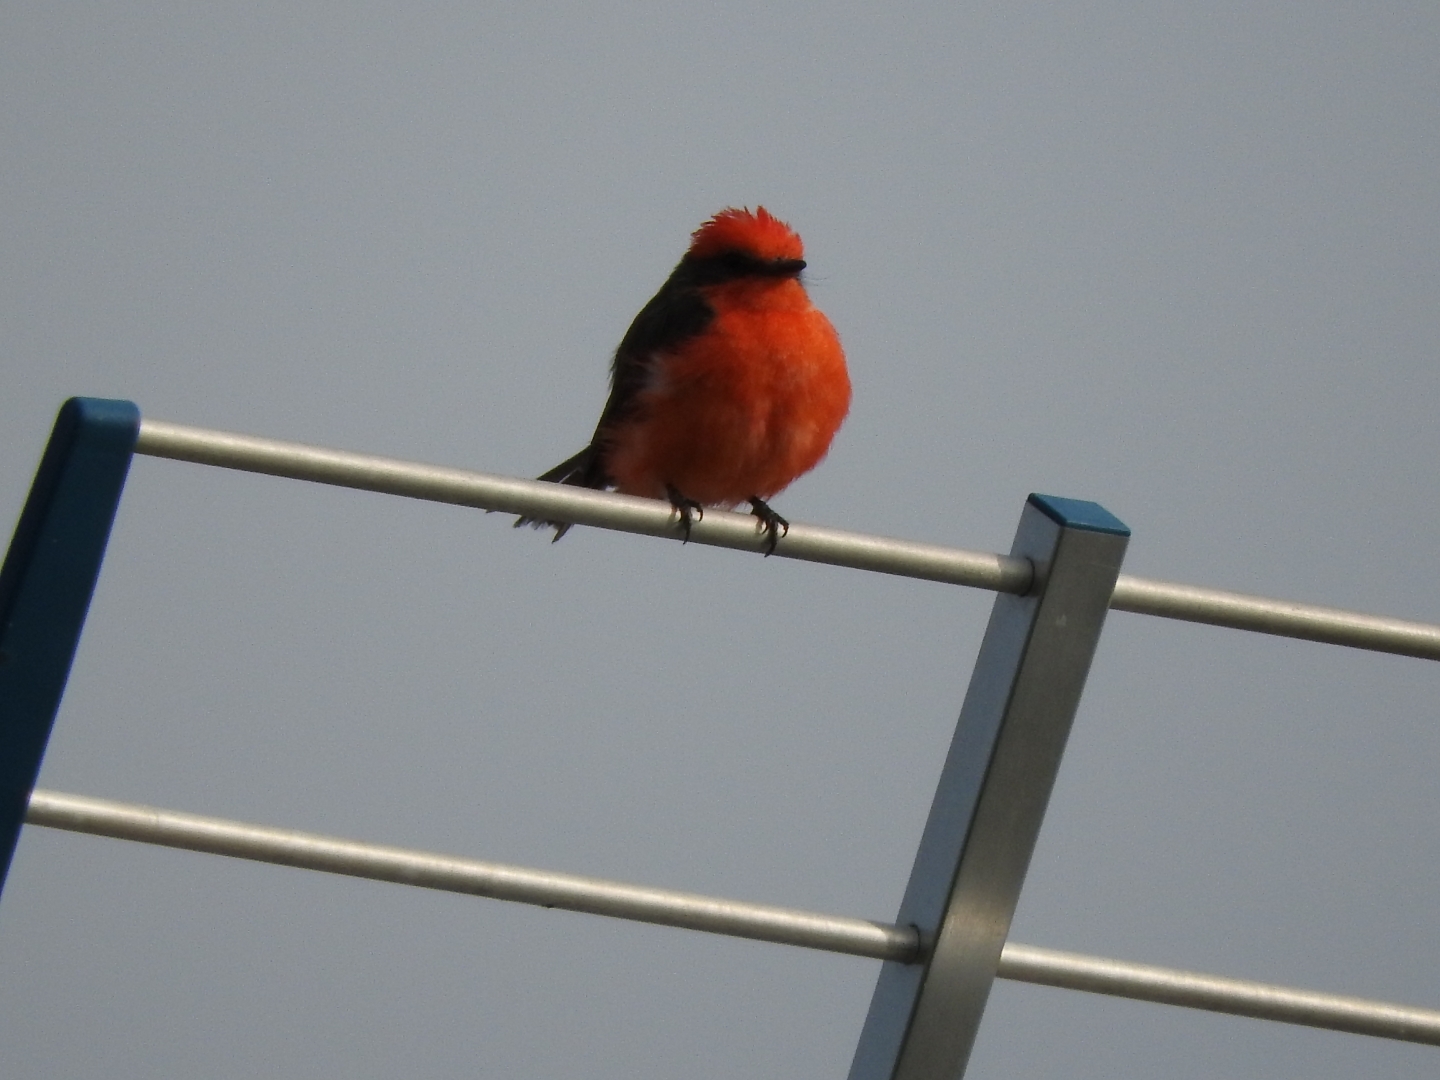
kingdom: Animalia
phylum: Chordata
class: Aves
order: Passeriformes
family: Tyrannidae
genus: Pyrocephalus
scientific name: Pyrocephalus rubinus
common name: Vermilion flycatcher
